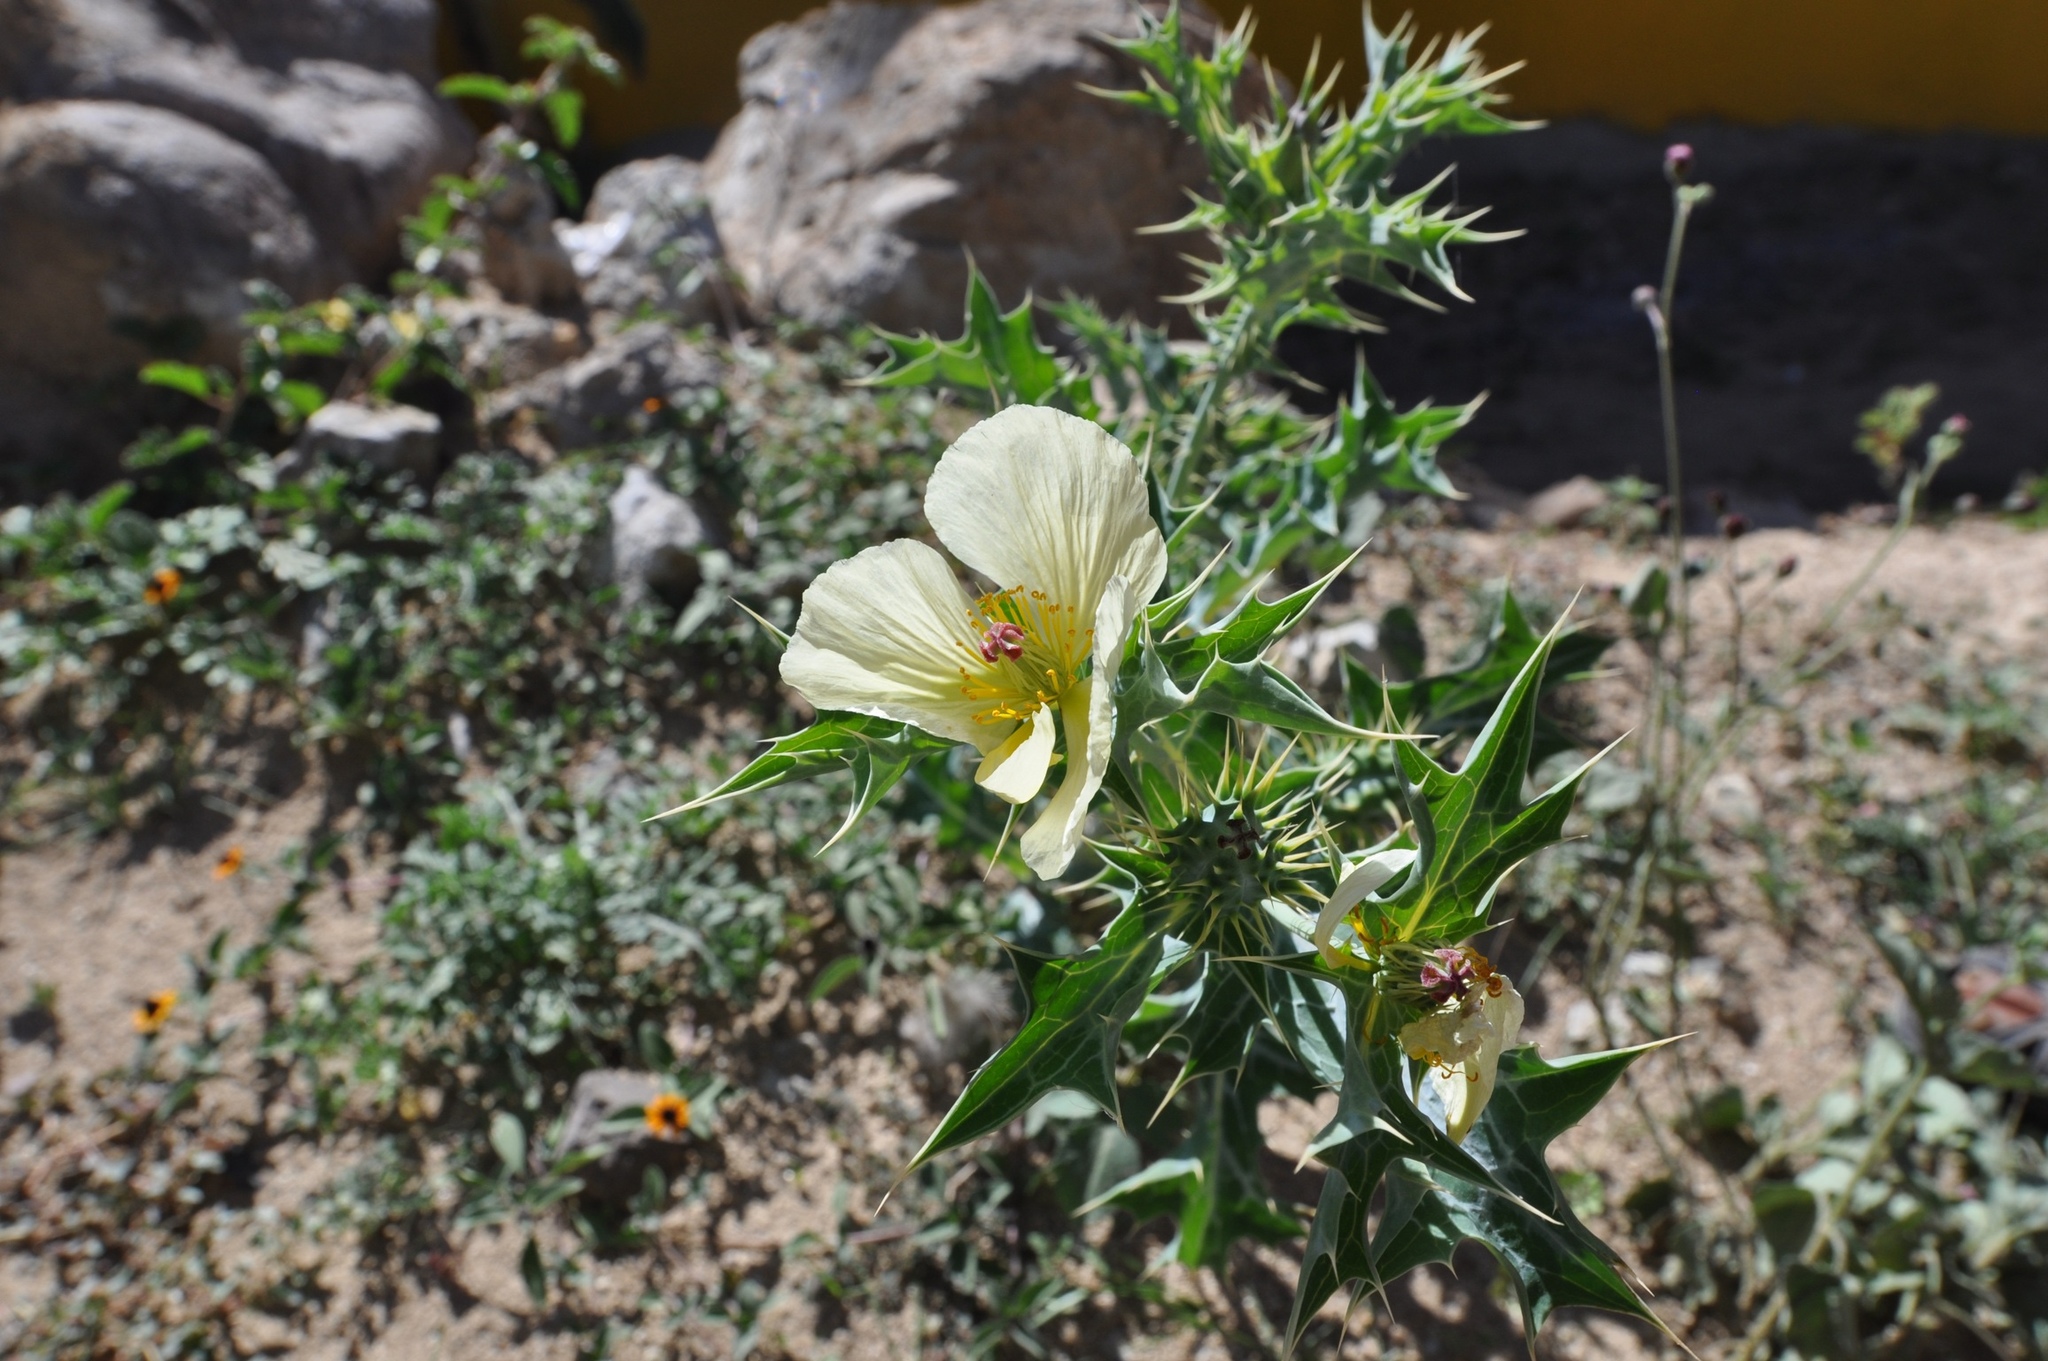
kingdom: Plantae
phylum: Tracheophyta
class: Magnoliopsida
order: Ranunculales
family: Papaveraceae
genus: Argemone
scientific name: Argemone ochroleuca
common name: White-flower mexican-poppy
